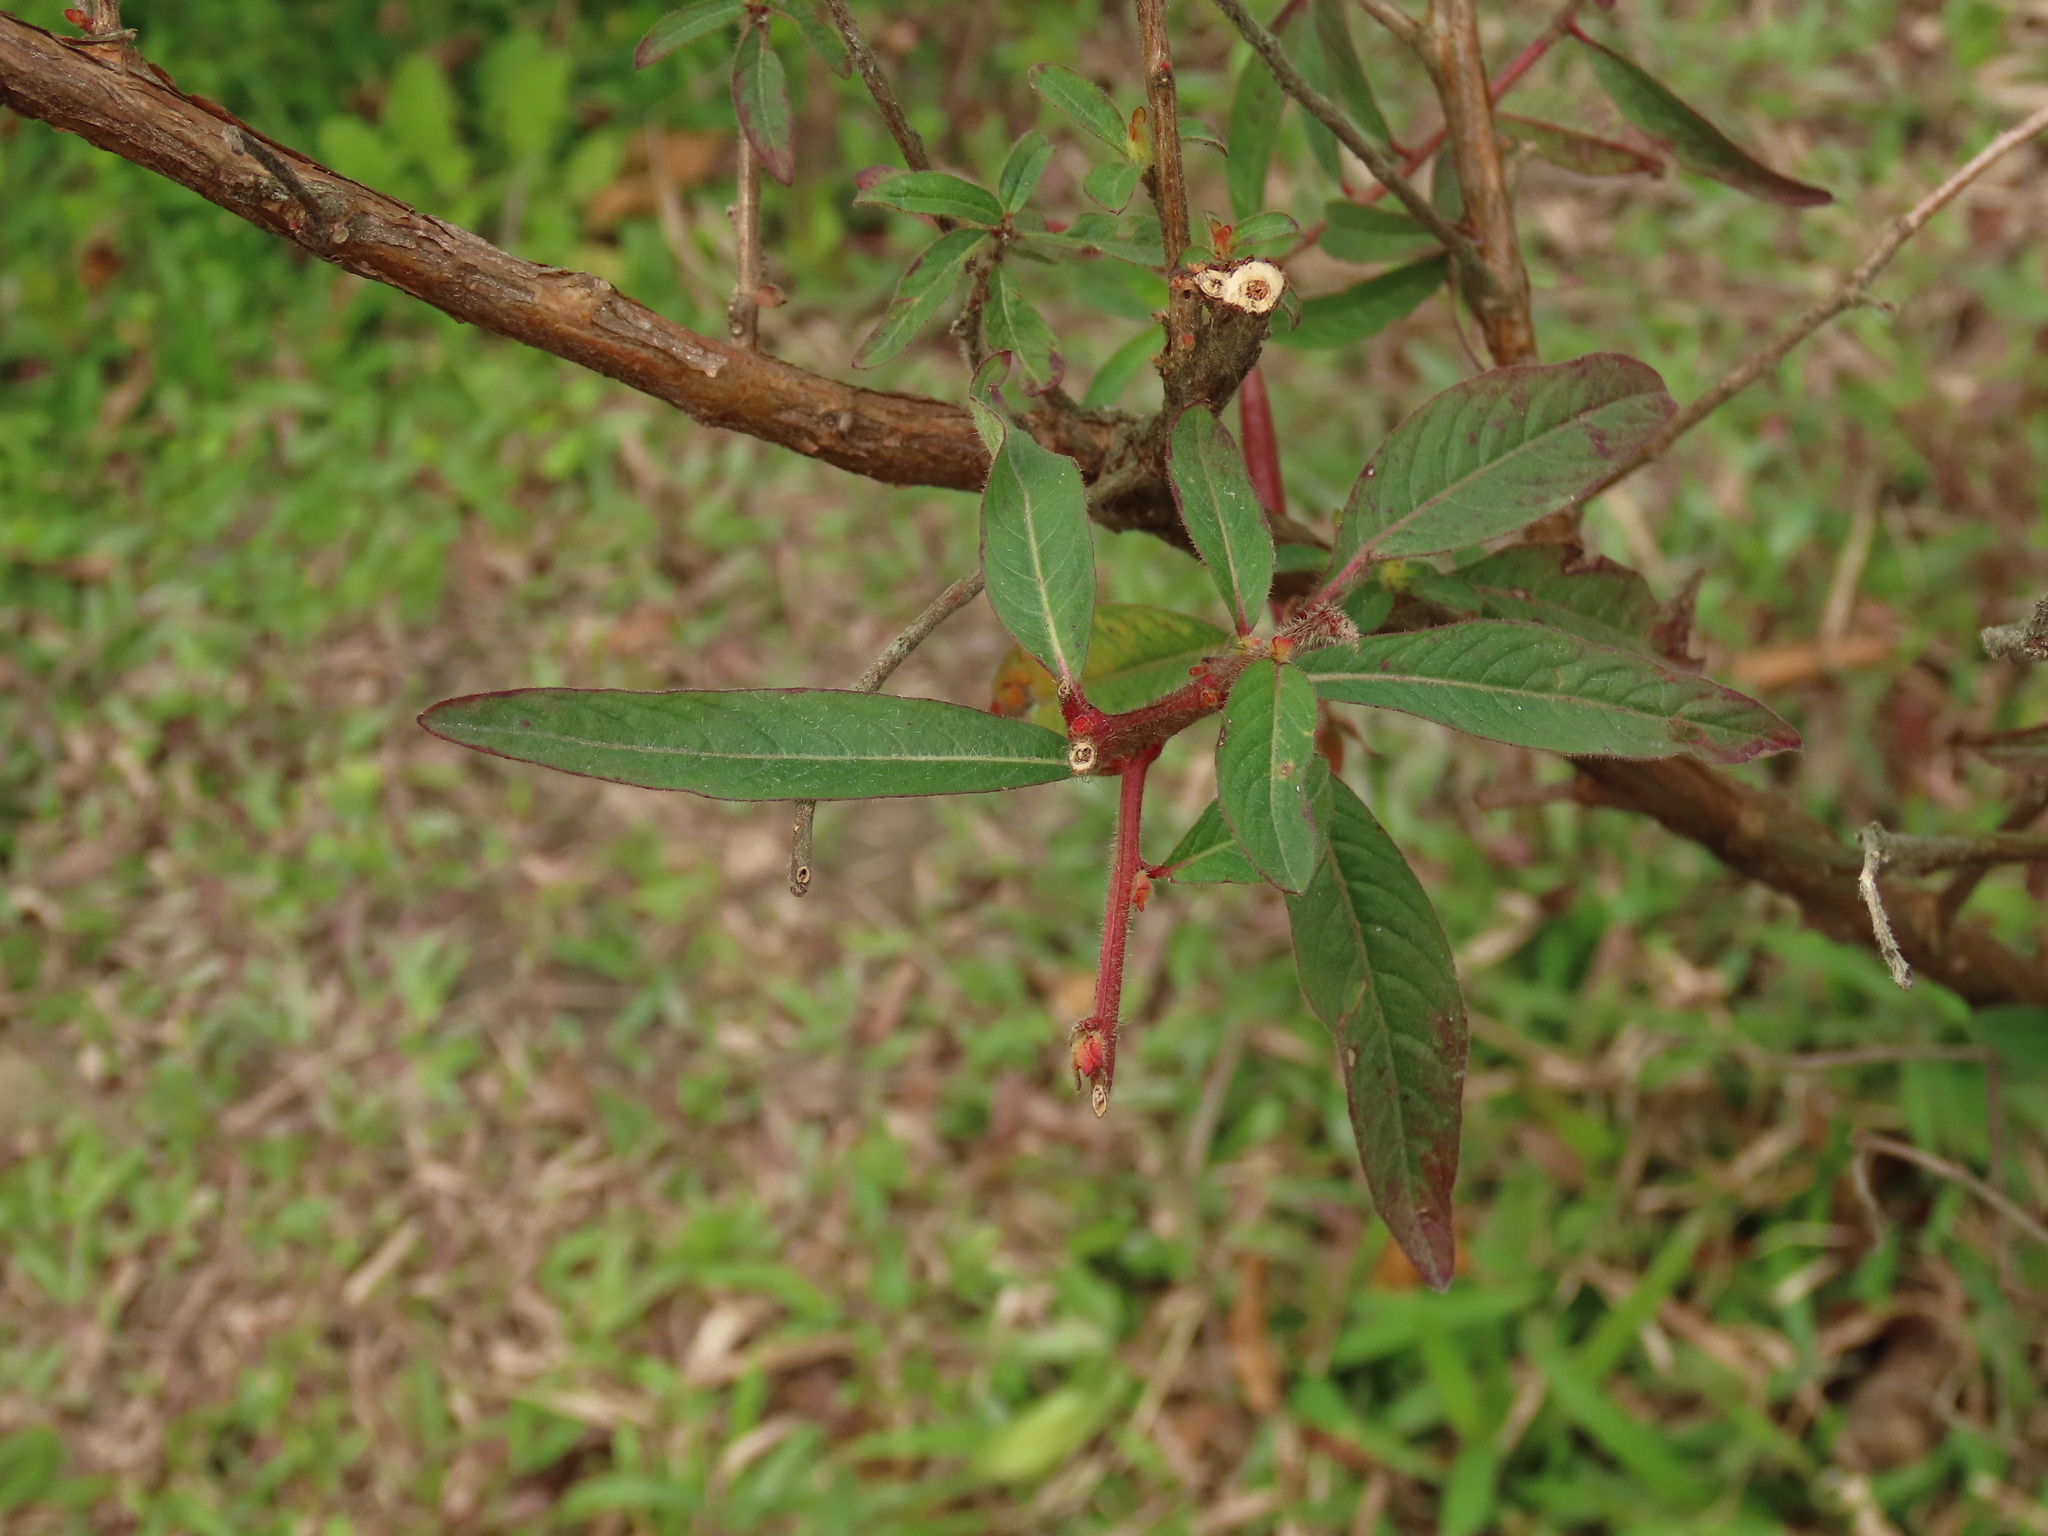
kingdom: Plantae
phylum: Tracheophyta
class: Magnoliopsida
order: Myrtales
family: Onagraceae
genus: Ludwigia
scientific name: Ludwigia octovalvis
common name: Water-primrose
